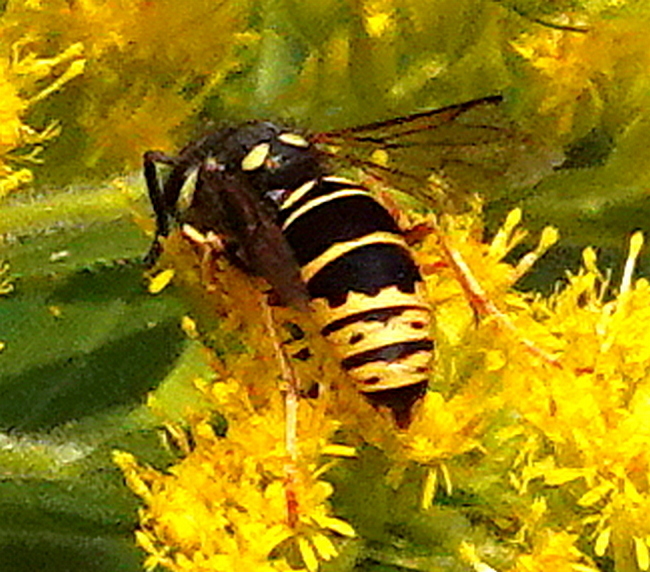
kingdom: Animalia
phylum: Arthropoda
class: Insecta
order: Hymenoptera
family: Vespidae
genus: Vespula
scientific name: Vespula vidua
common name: Widow yellowjacket
